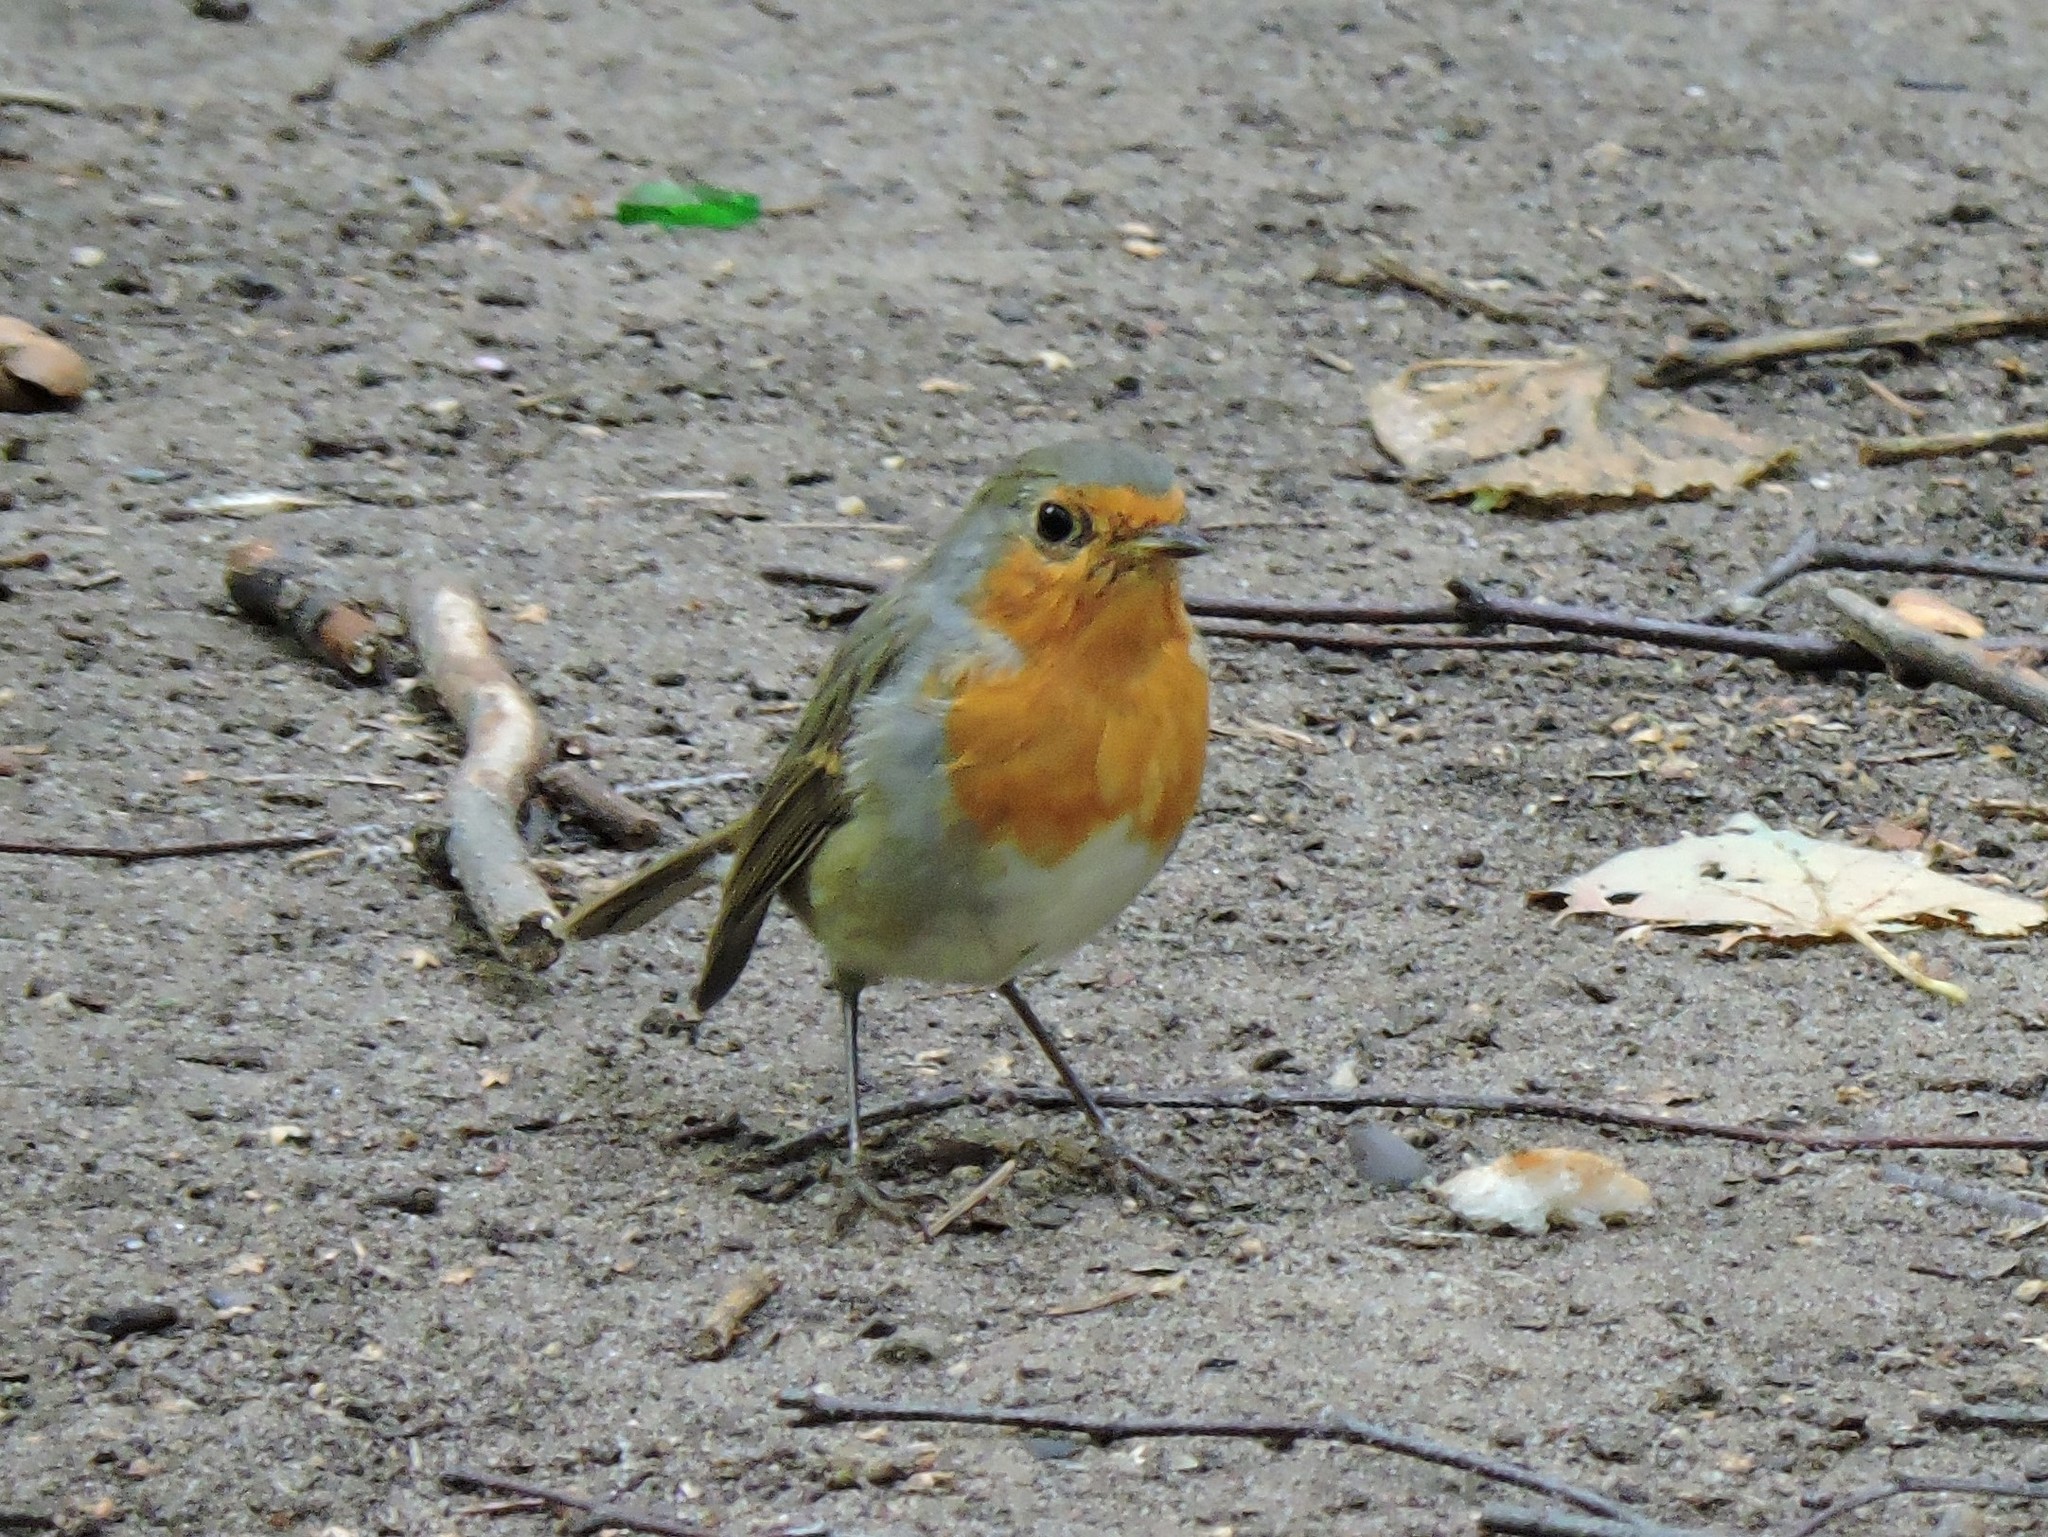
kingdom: Animalia
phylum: Chordata
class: Aves
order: Passeriformes
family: Muscicapidae
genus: Erithacus
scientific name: Erithacus rubecula
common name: European robin
